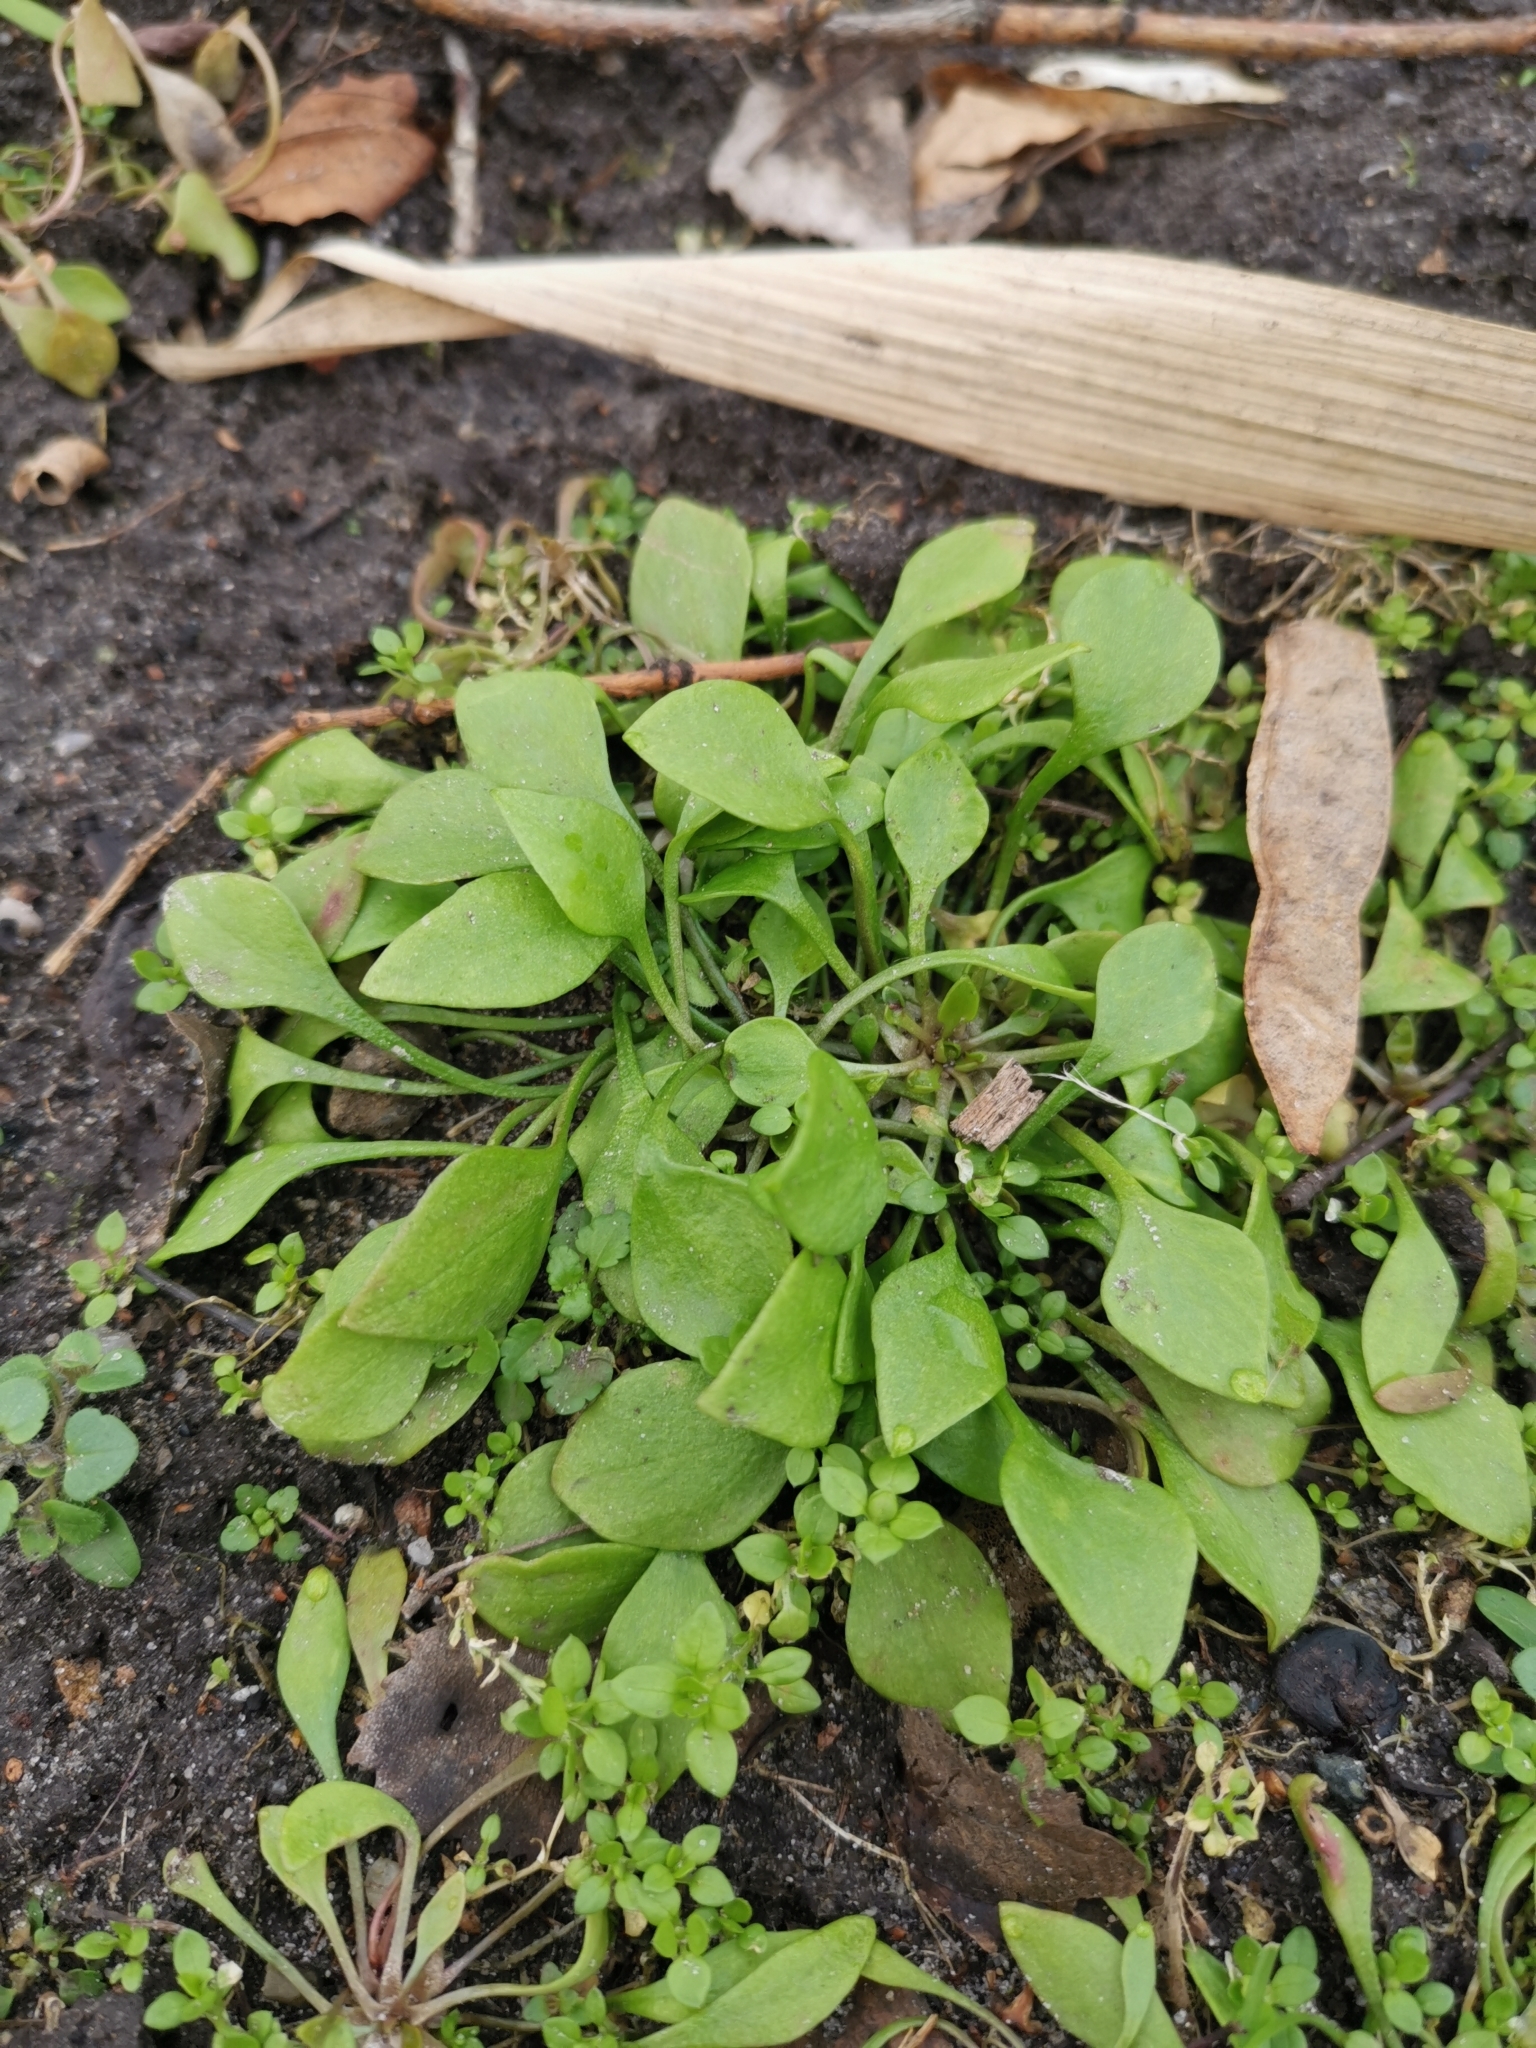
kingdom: Plantae
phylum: Tracheophyta
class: Magnoliopsida
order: Caryophyllales
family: Montiaceae
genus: Claytonia
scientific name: Claytonia perfoliata
